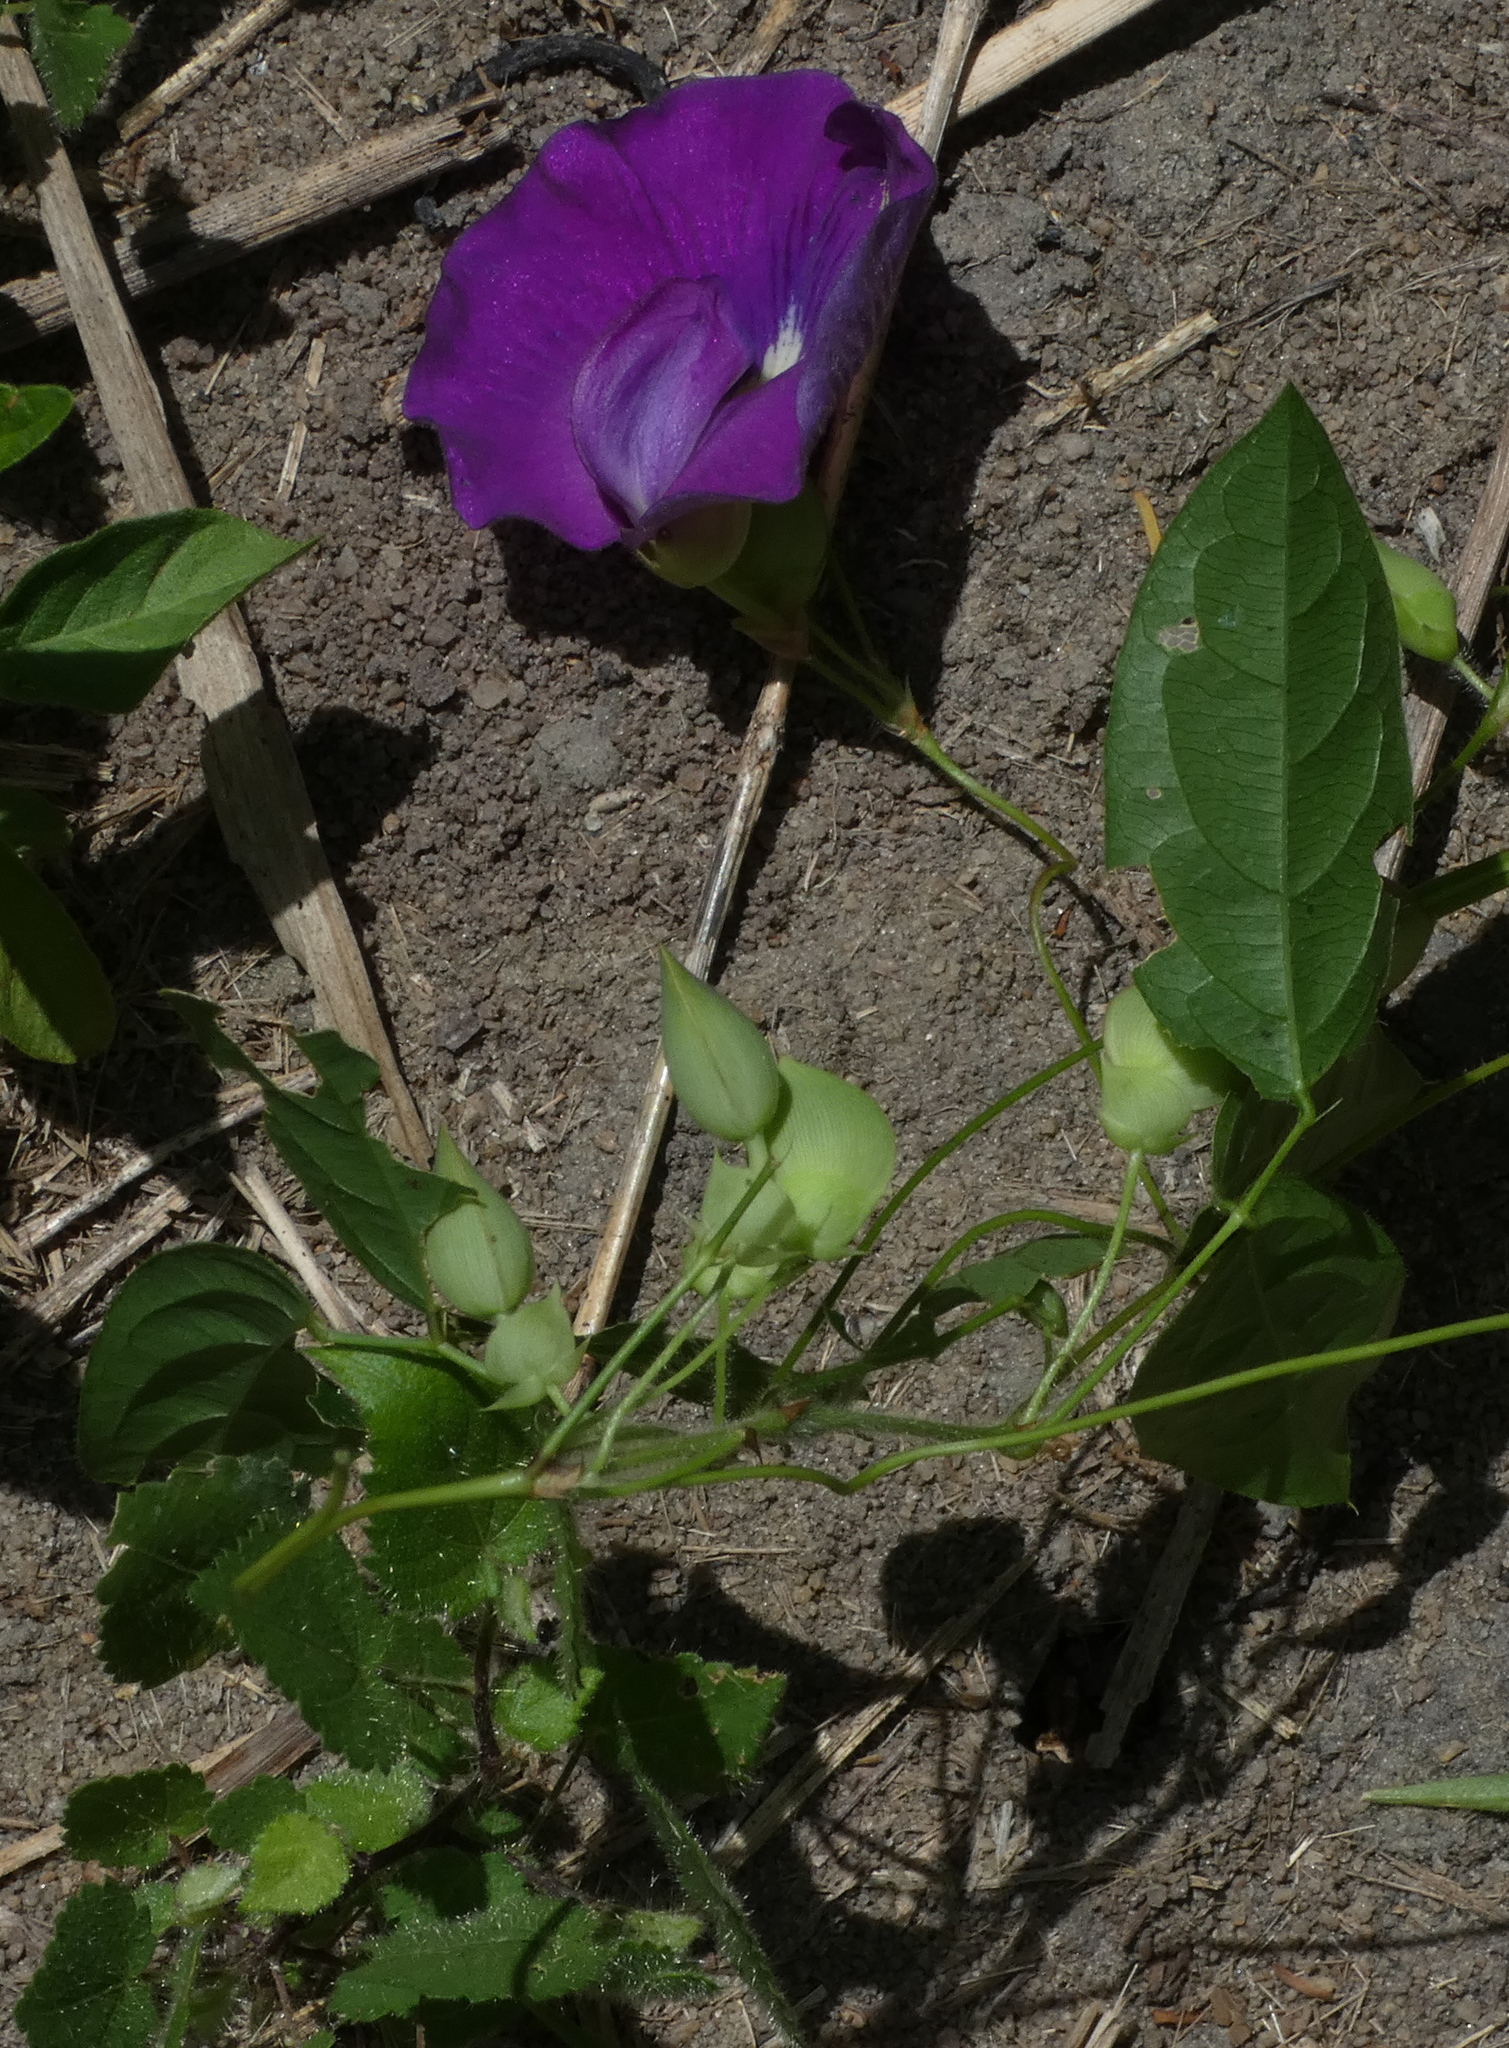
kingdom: Plantae
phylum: Tracheophyta
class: Magnoliopsida
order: Fabales
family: Fabaceae
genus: Centrosema
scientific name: Centrosema brasilianum
